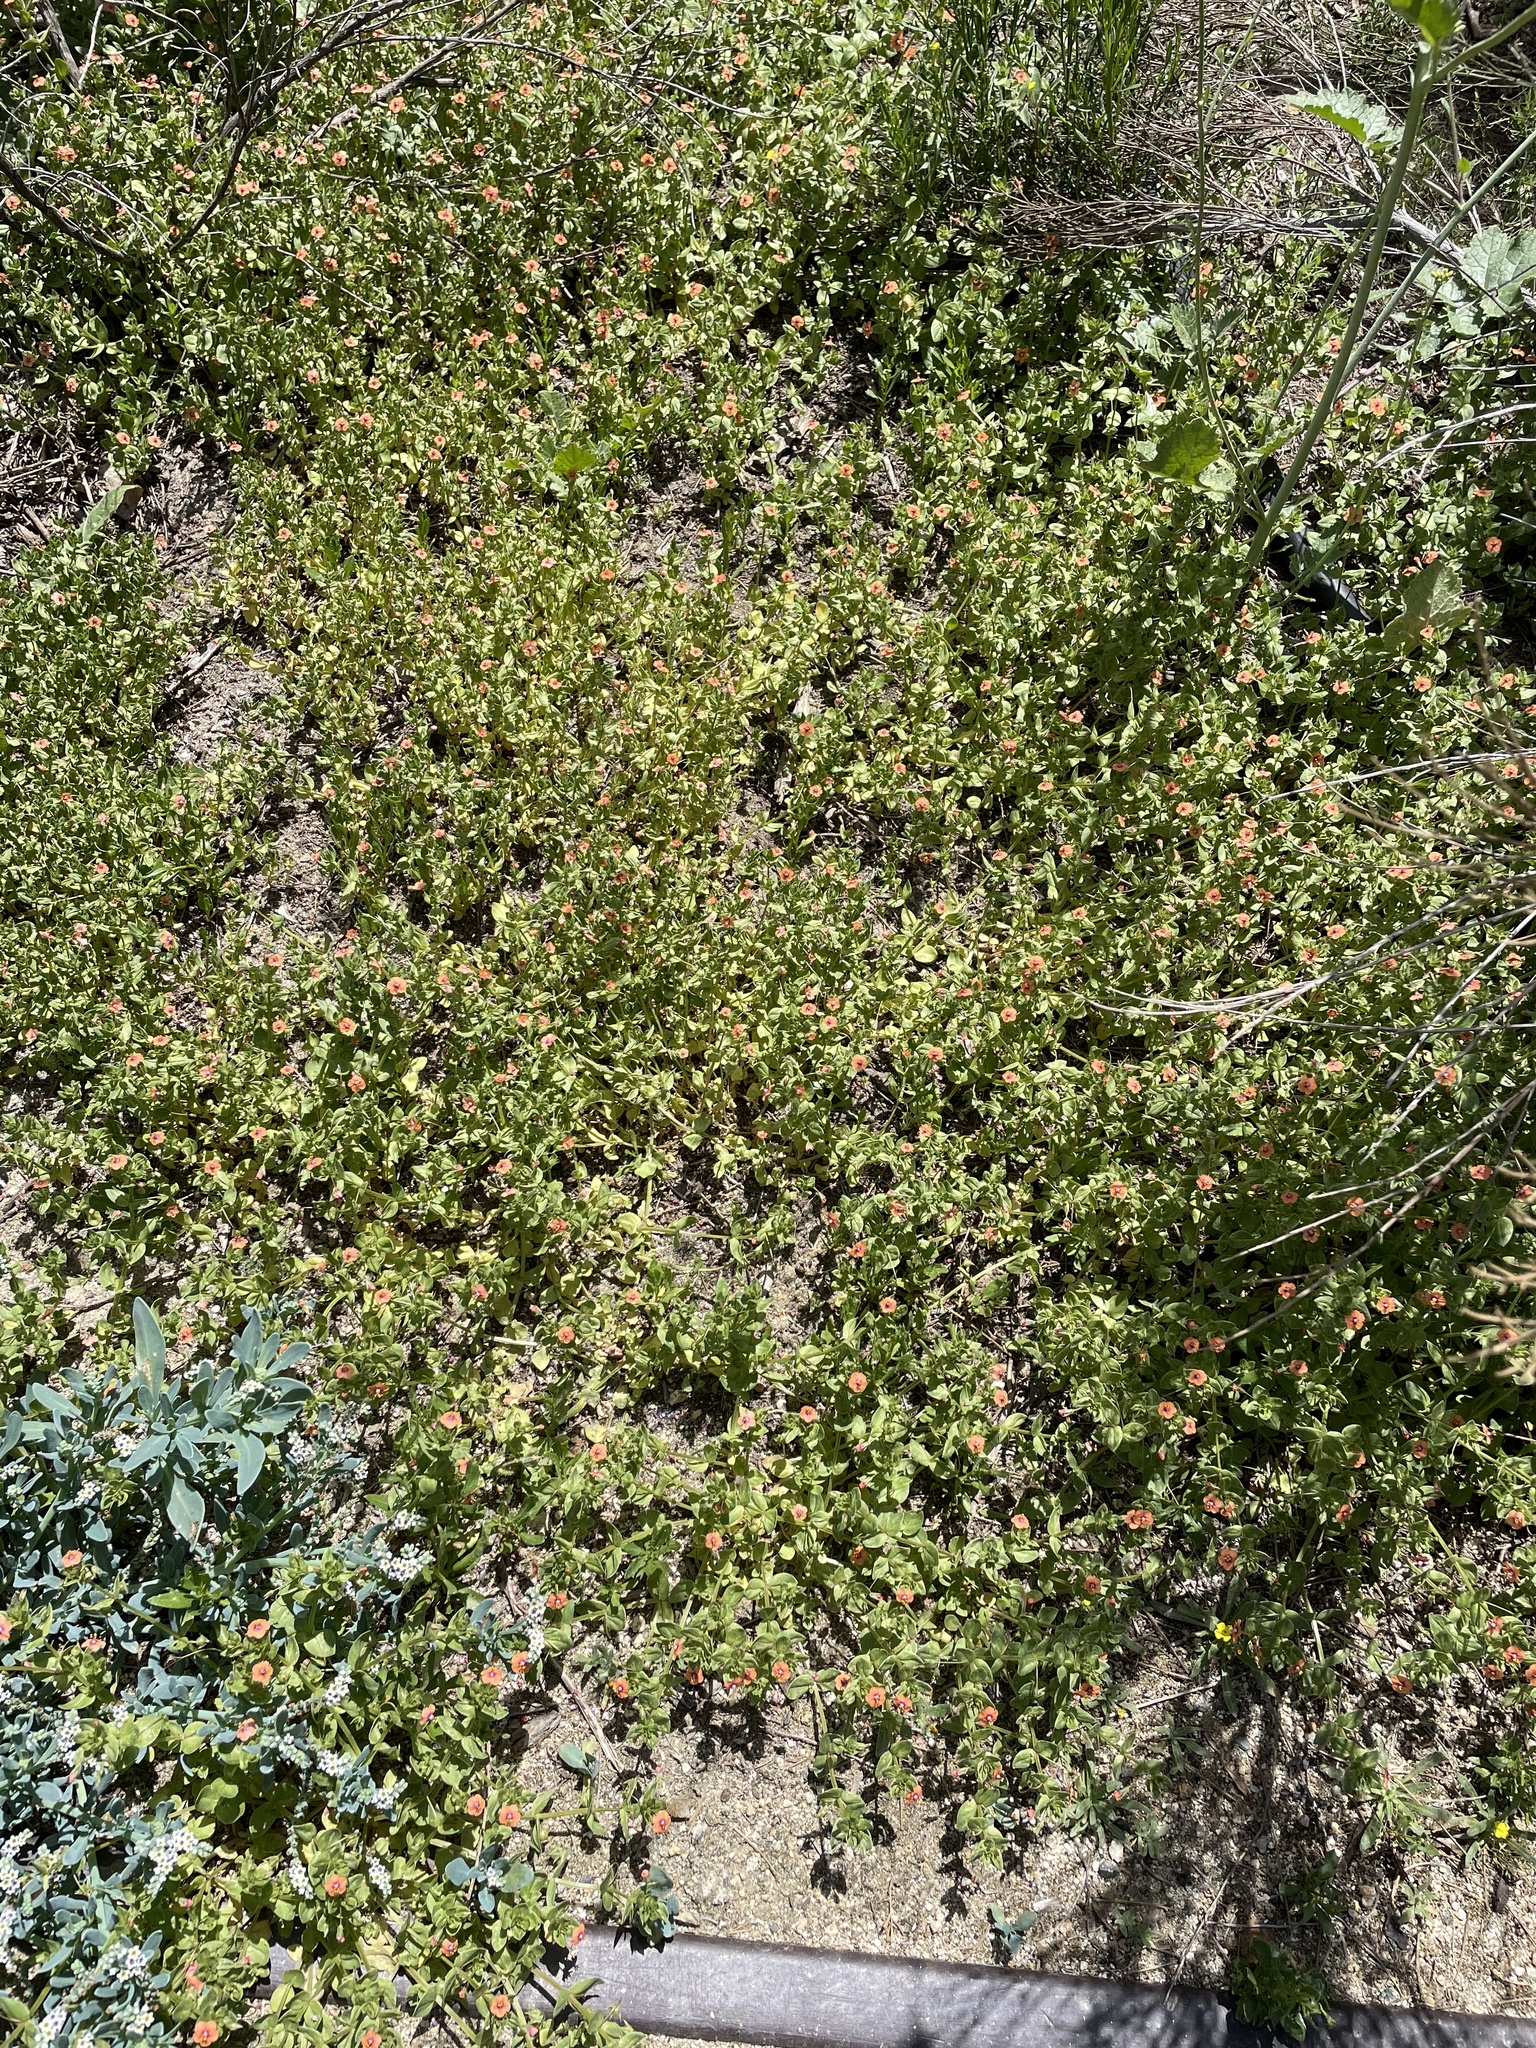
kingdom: Plantae
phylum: Tracheophyta
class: Magnoliopsida
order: Ericales
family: Primulaceae
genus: Lysimachia
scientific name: Lysimachia arvensis
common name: Scarlet pimpernel
